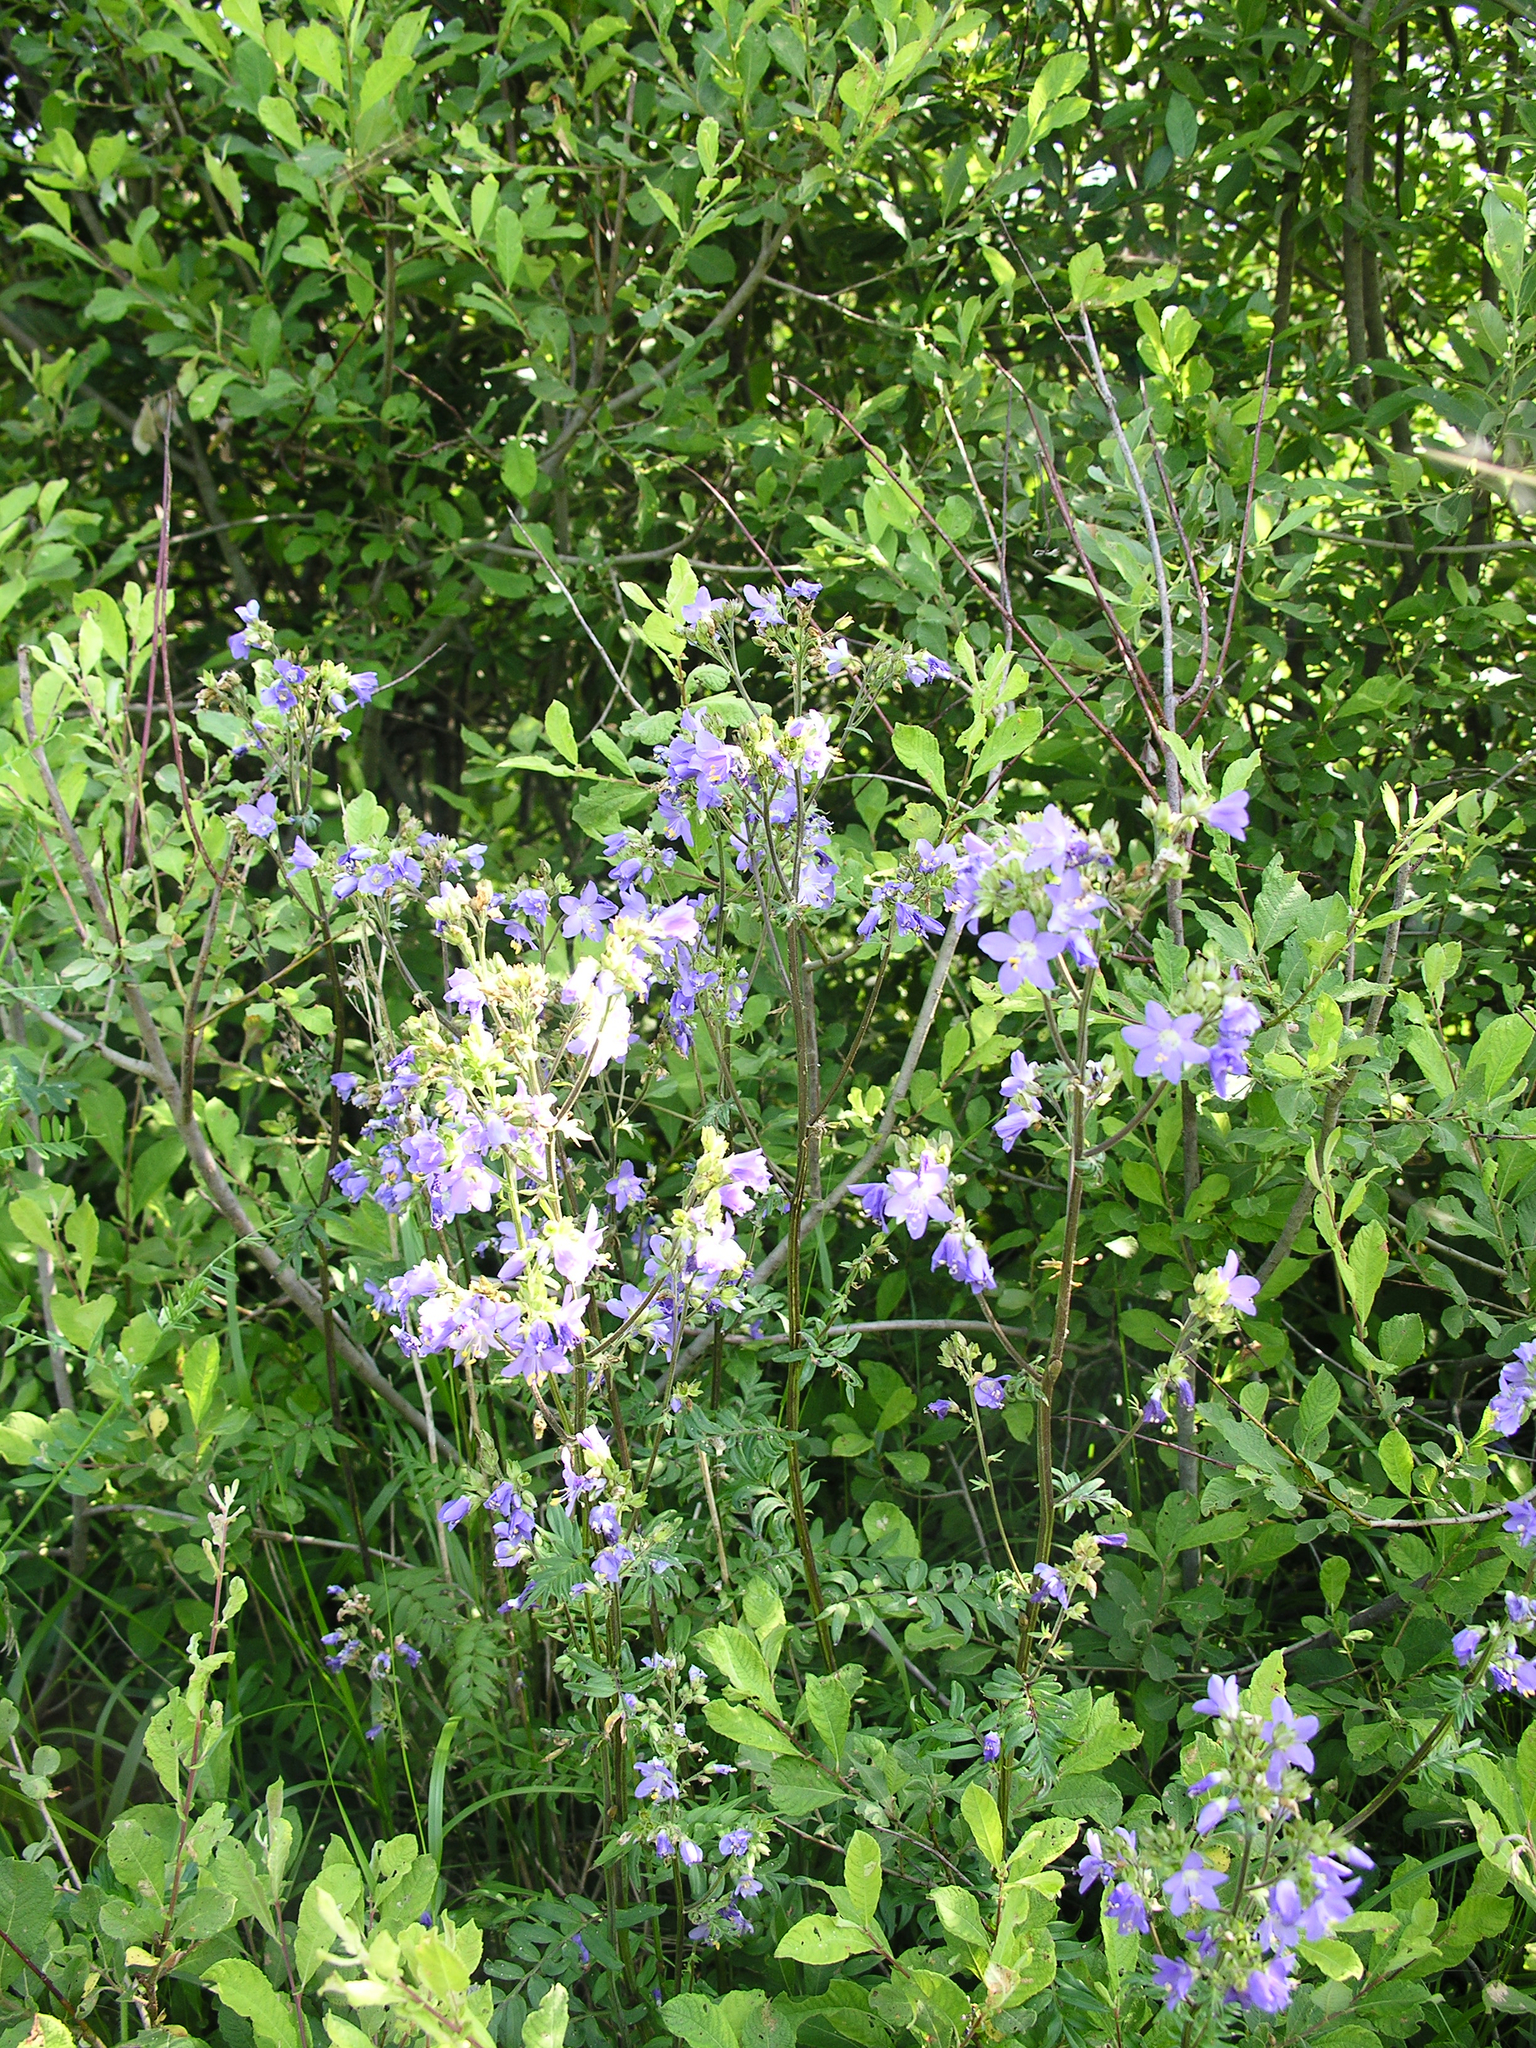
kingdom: Plantae
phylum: Tracheophyta
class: Magnoliopsida
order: Ericales
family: Polemoniaceae
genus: Polemonium
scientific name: Polemonium caeruleum
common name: Jacob's-ladder
